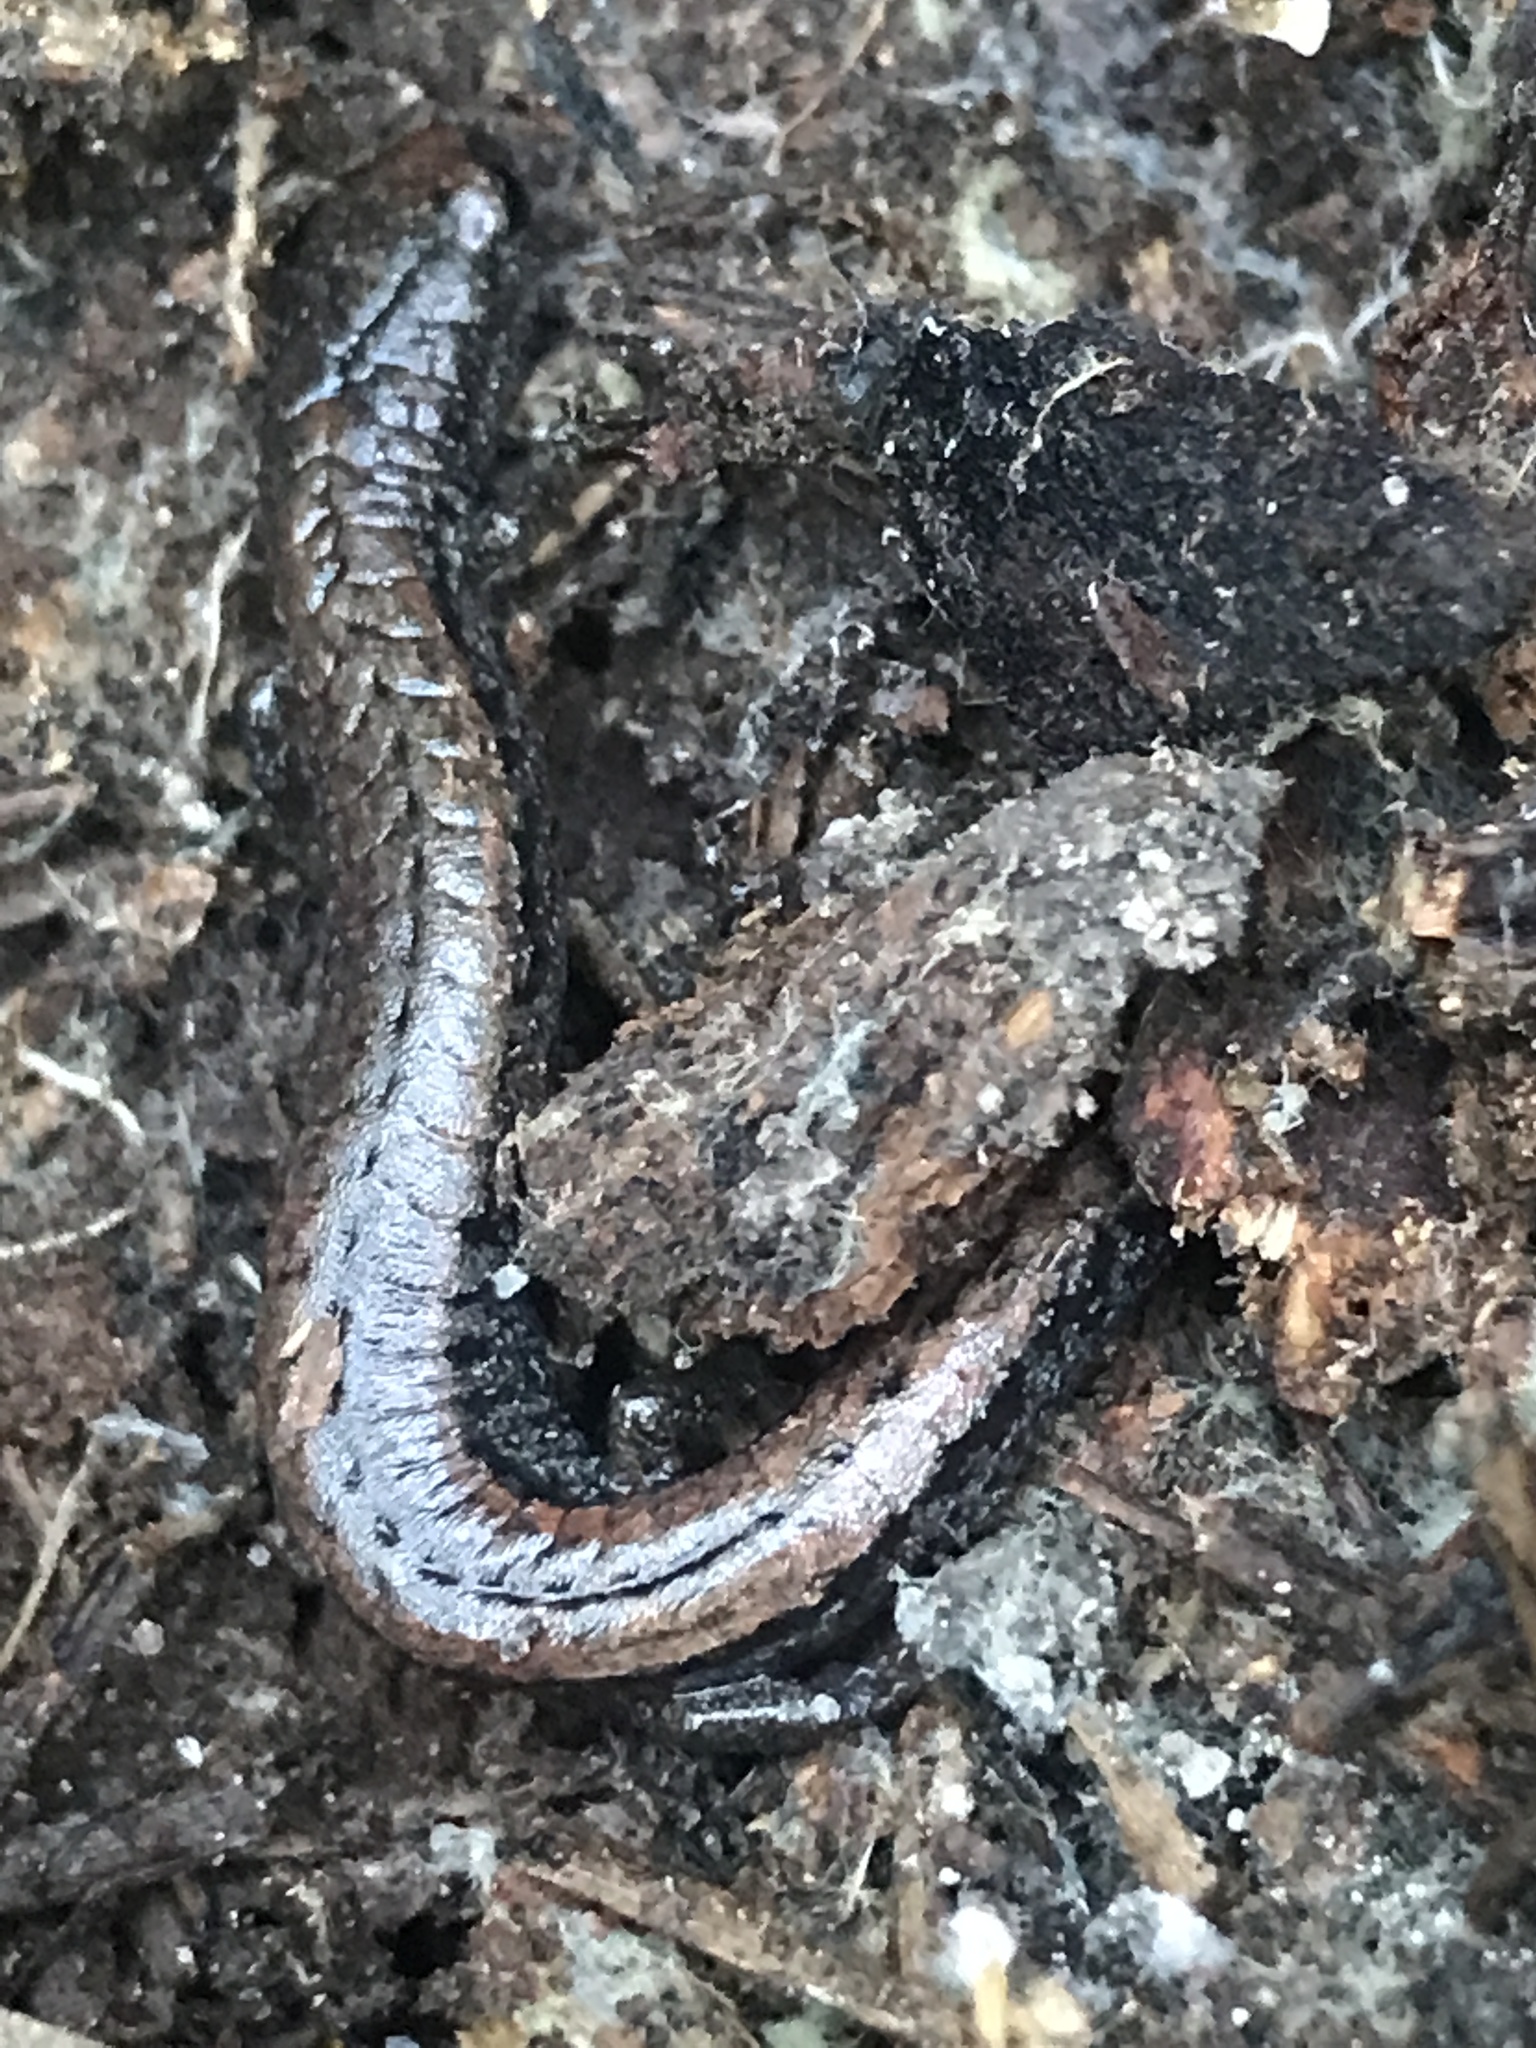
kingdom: Animalia
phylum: Chordata
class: Amphibia
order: Caudata
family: Plethodontidae
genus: Batrachoseps
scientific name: Batrachoseps luciae
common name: Santa lucia mountains slender salamander
